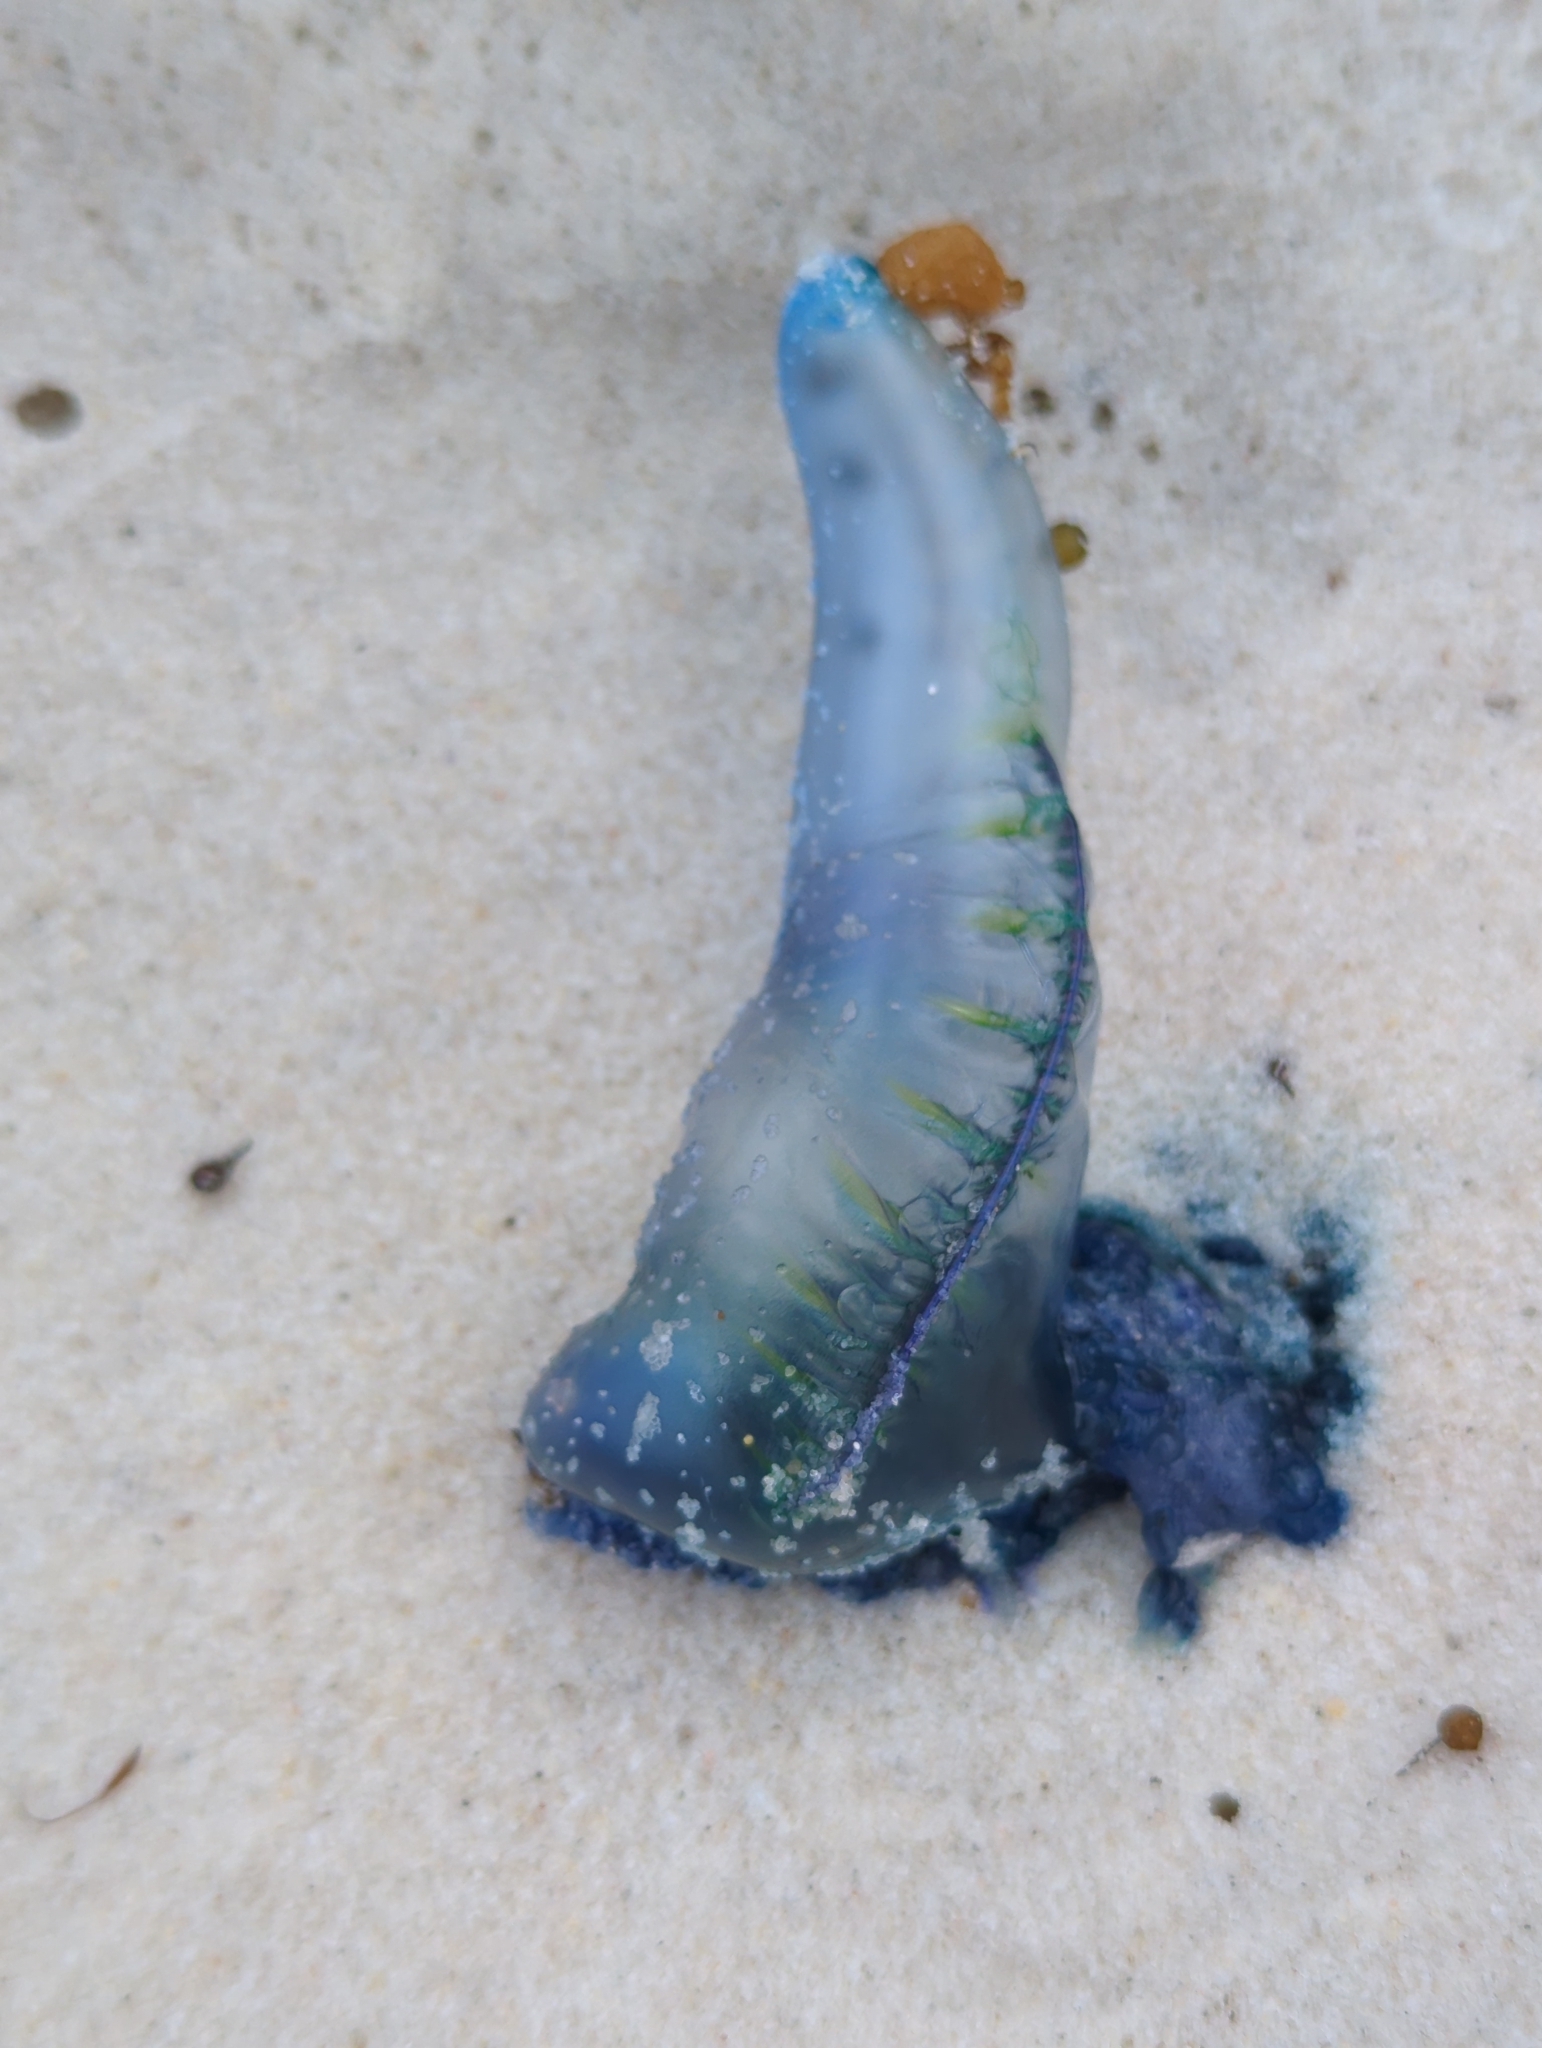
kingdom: Animalia
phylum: Cnidaria
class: Hydrozoa
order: Siphonophorae
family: Physaliidae
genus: Physalia
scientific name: Physalia physalis
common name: Portuguese man-of-war
